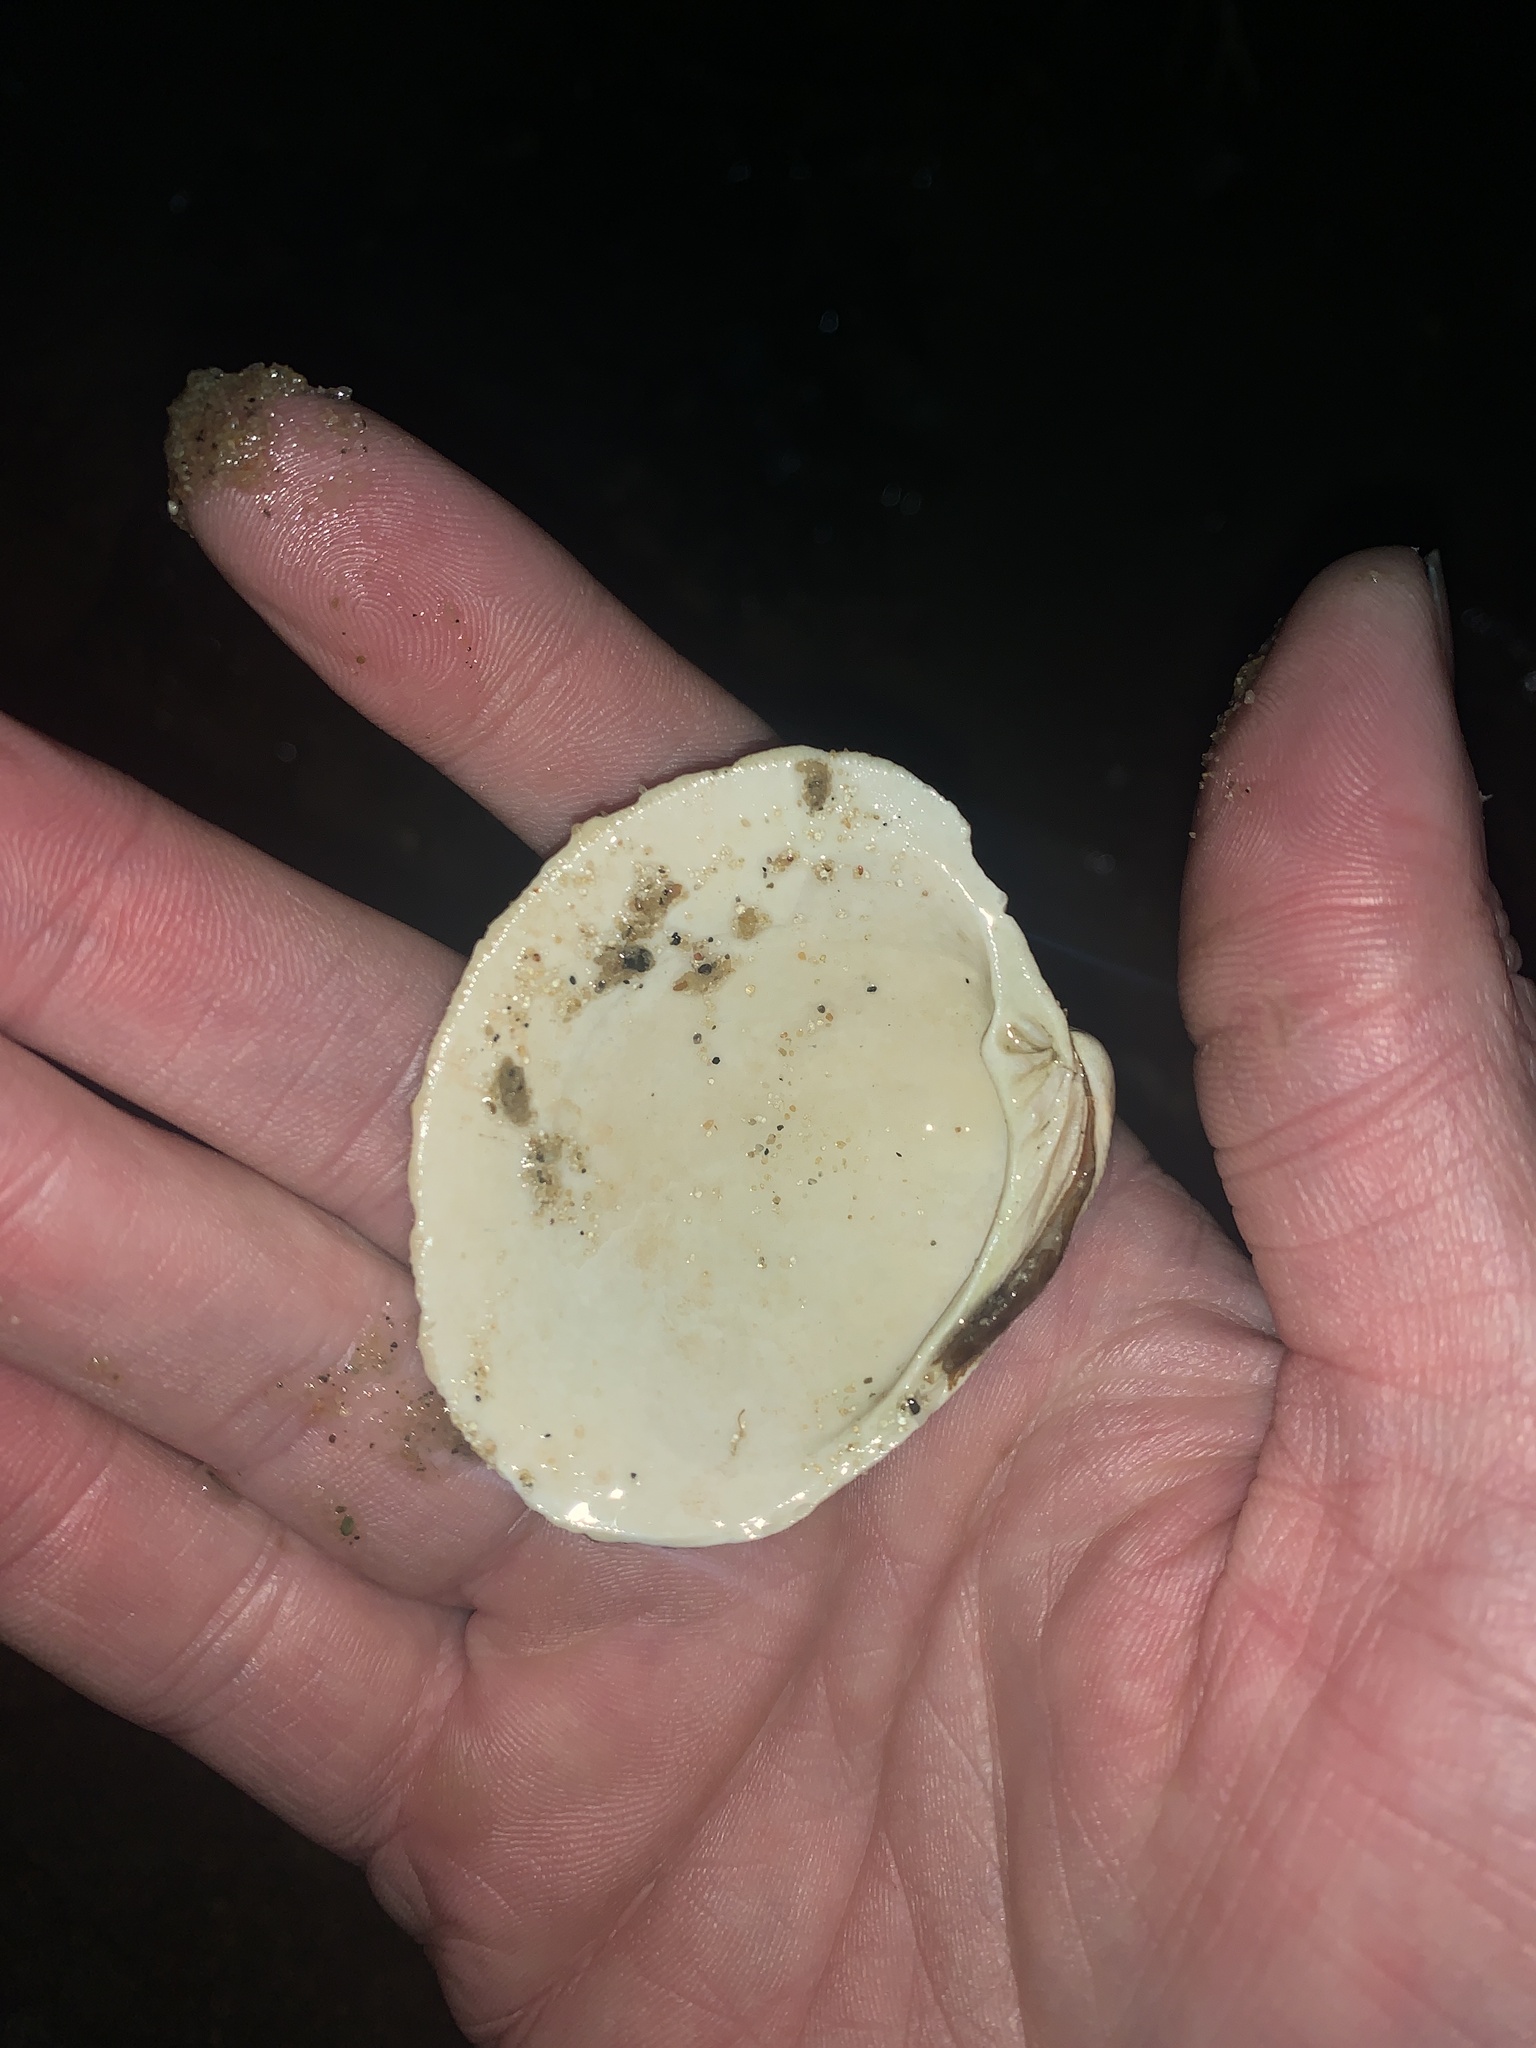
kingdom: Animalia
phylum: Mollusca
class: Bivalvia
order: Venerida
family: Veneridae
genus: Mercenaria
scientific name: Mercenaria mercenaria
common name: American hard-shelled clam
